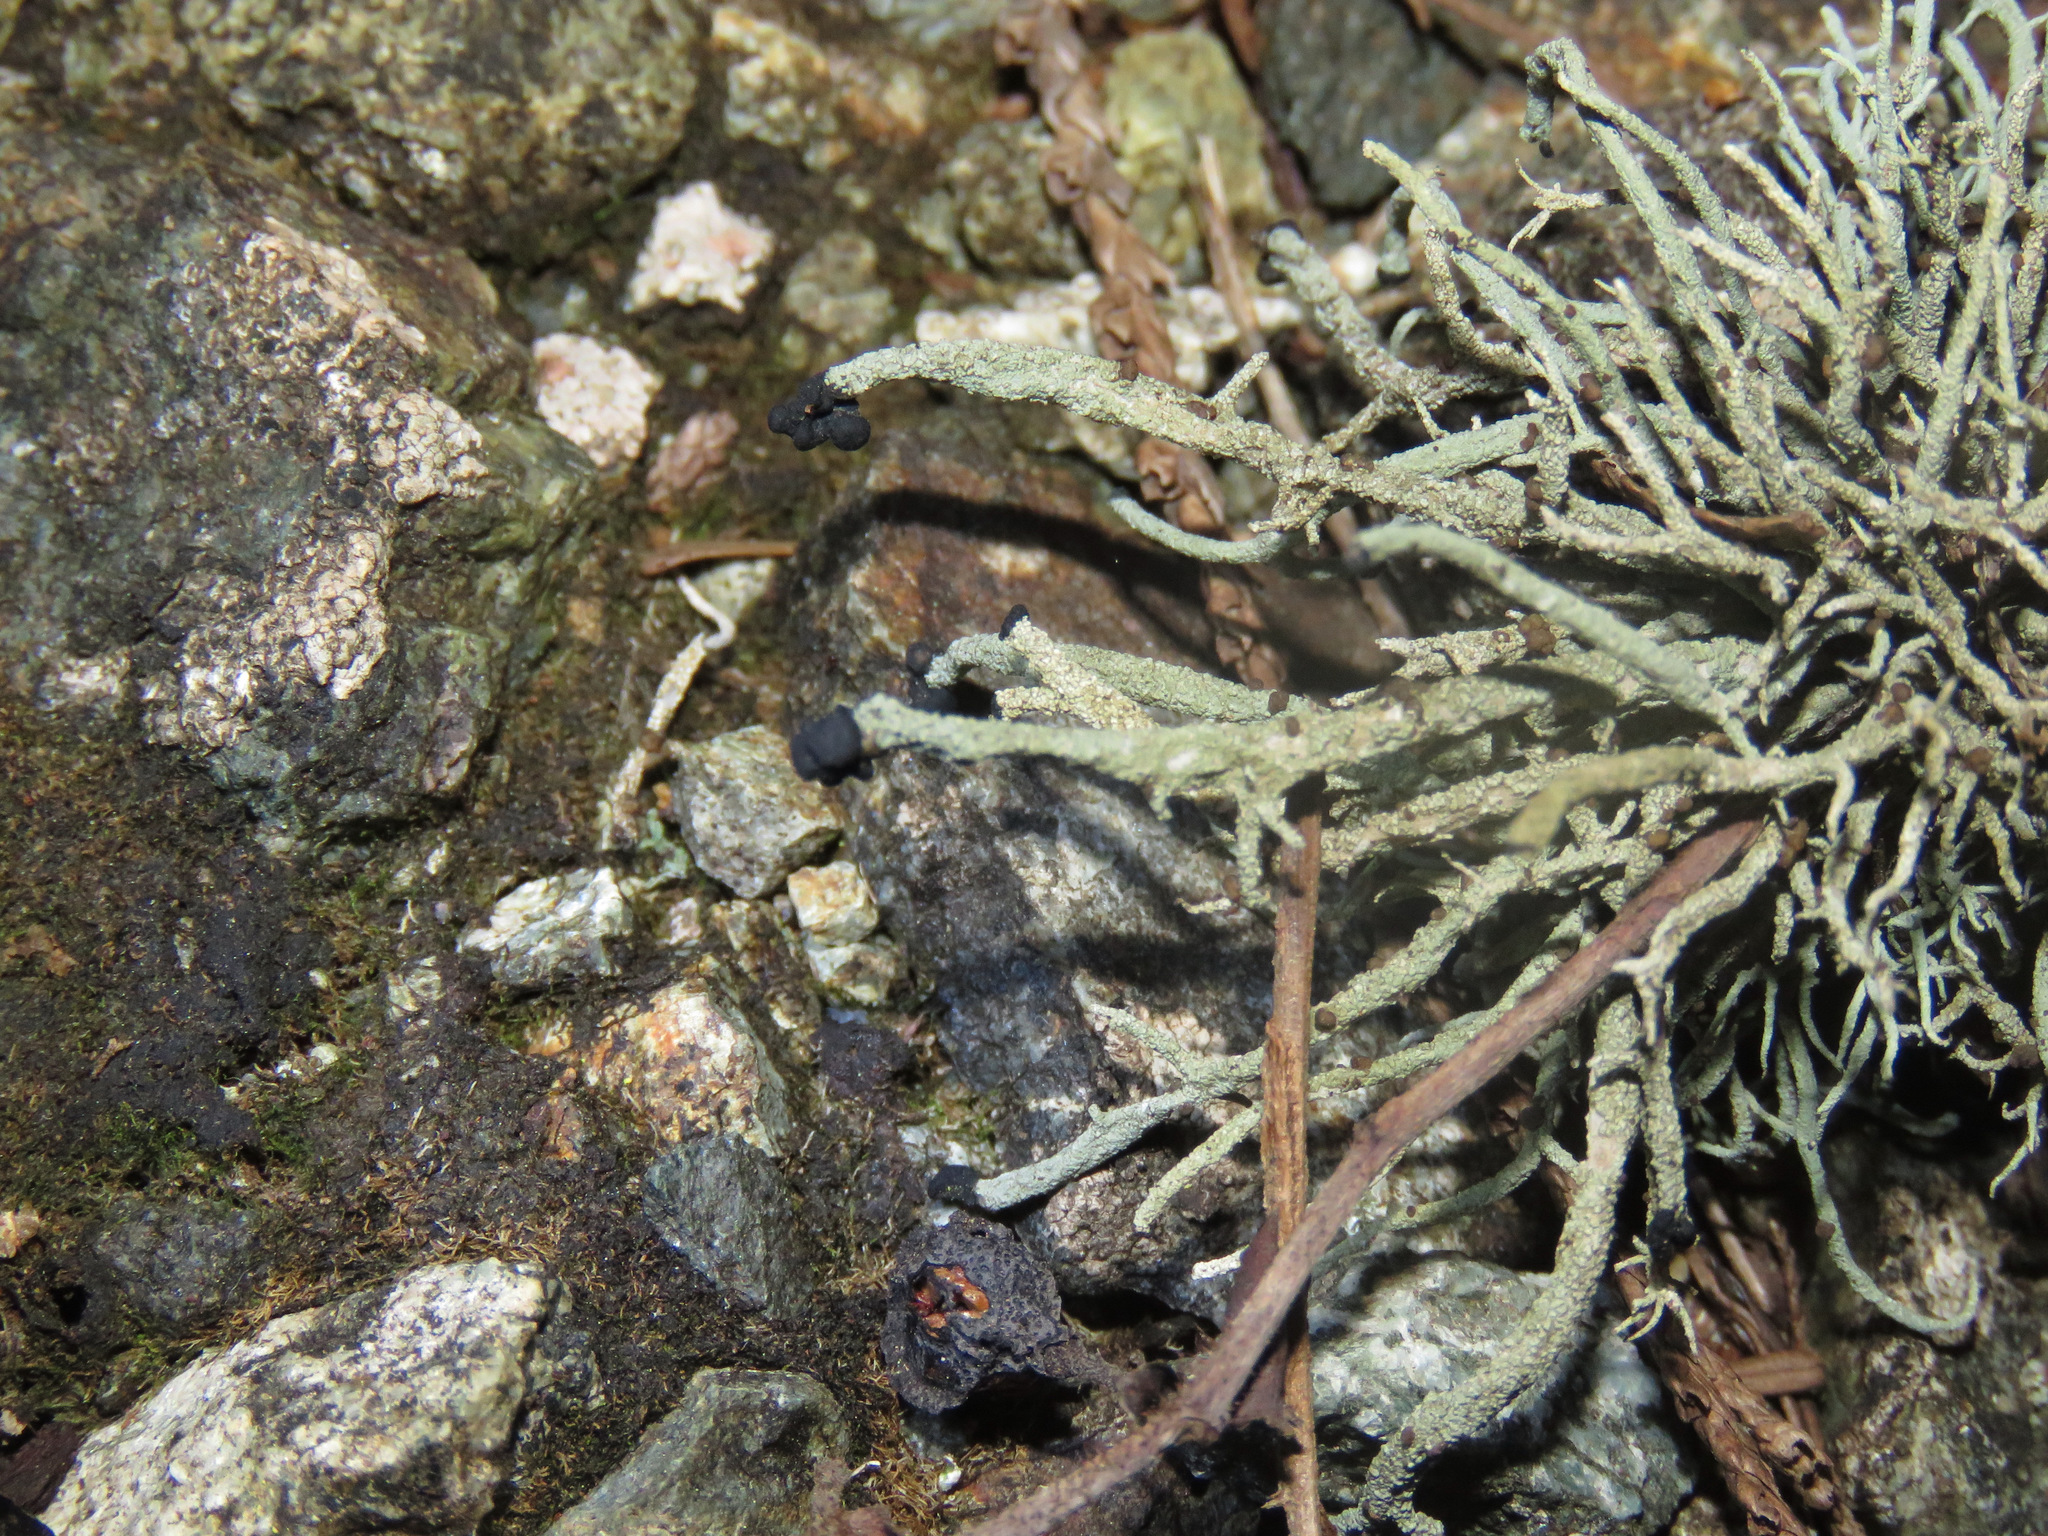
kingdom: Fungi
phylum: Ascomycota
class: Lecanoromycetes
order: Lecanorales
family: Cladoniaceae
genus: Pilophorus
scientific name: Pilophorus acicularis
